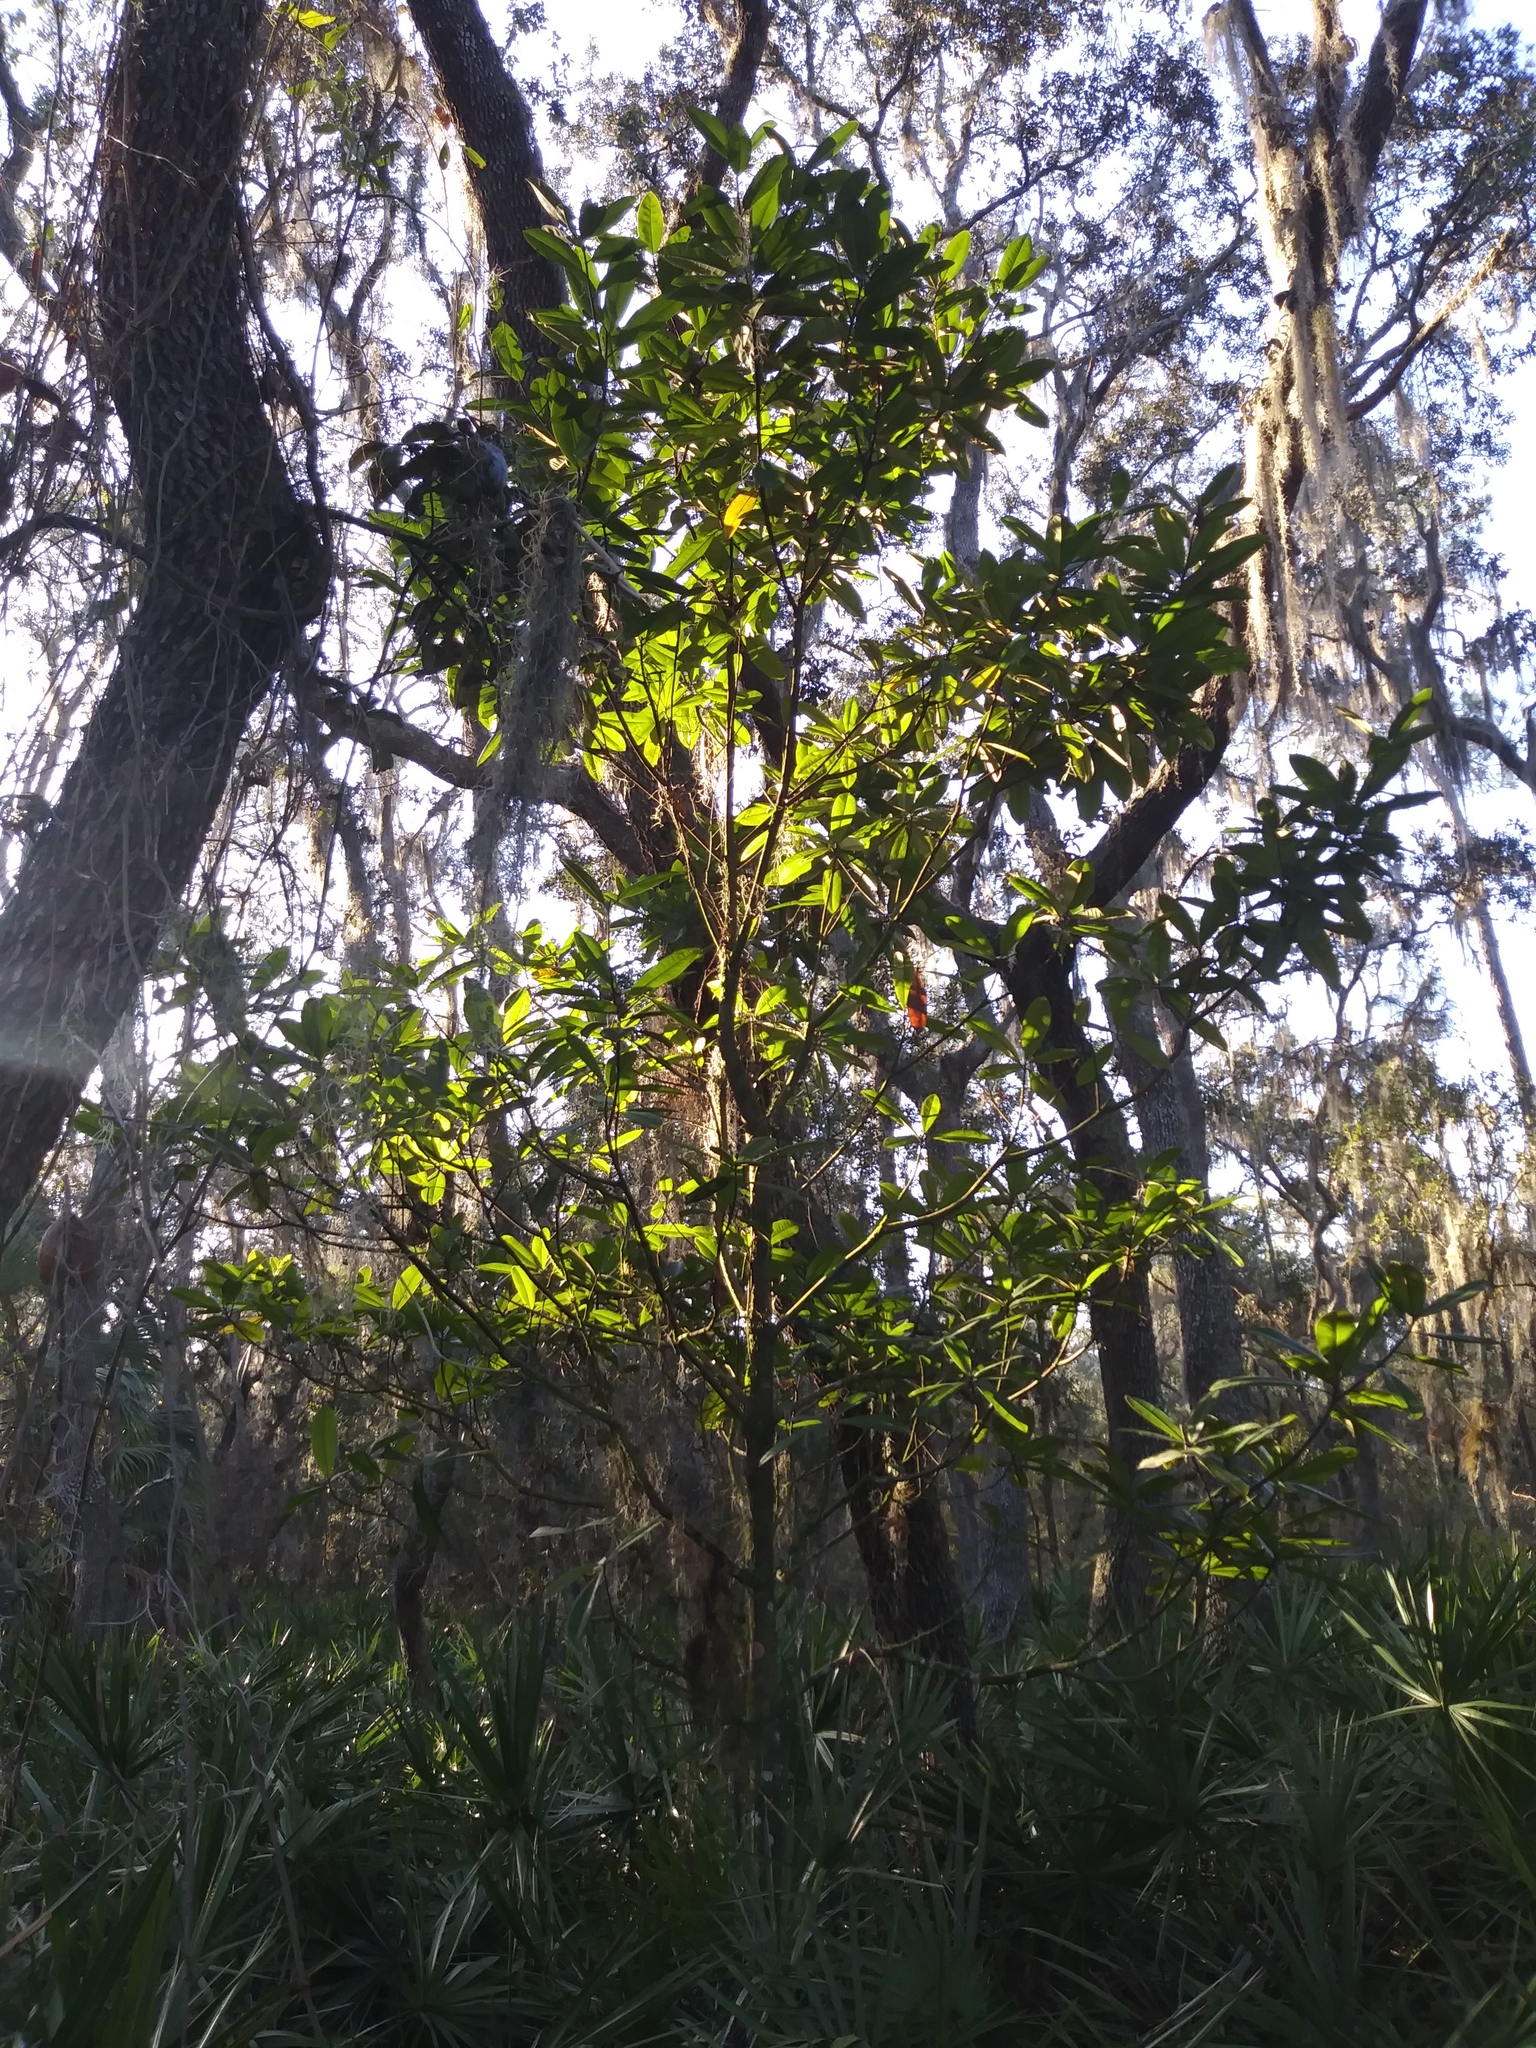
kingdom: Plantae
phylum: Tracheophyta
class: Magnoliopsida
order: Magnoliales
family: Magnoliaceae
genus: Magnolia
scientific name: Magnolia grandiflora
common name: Southern magnolia
